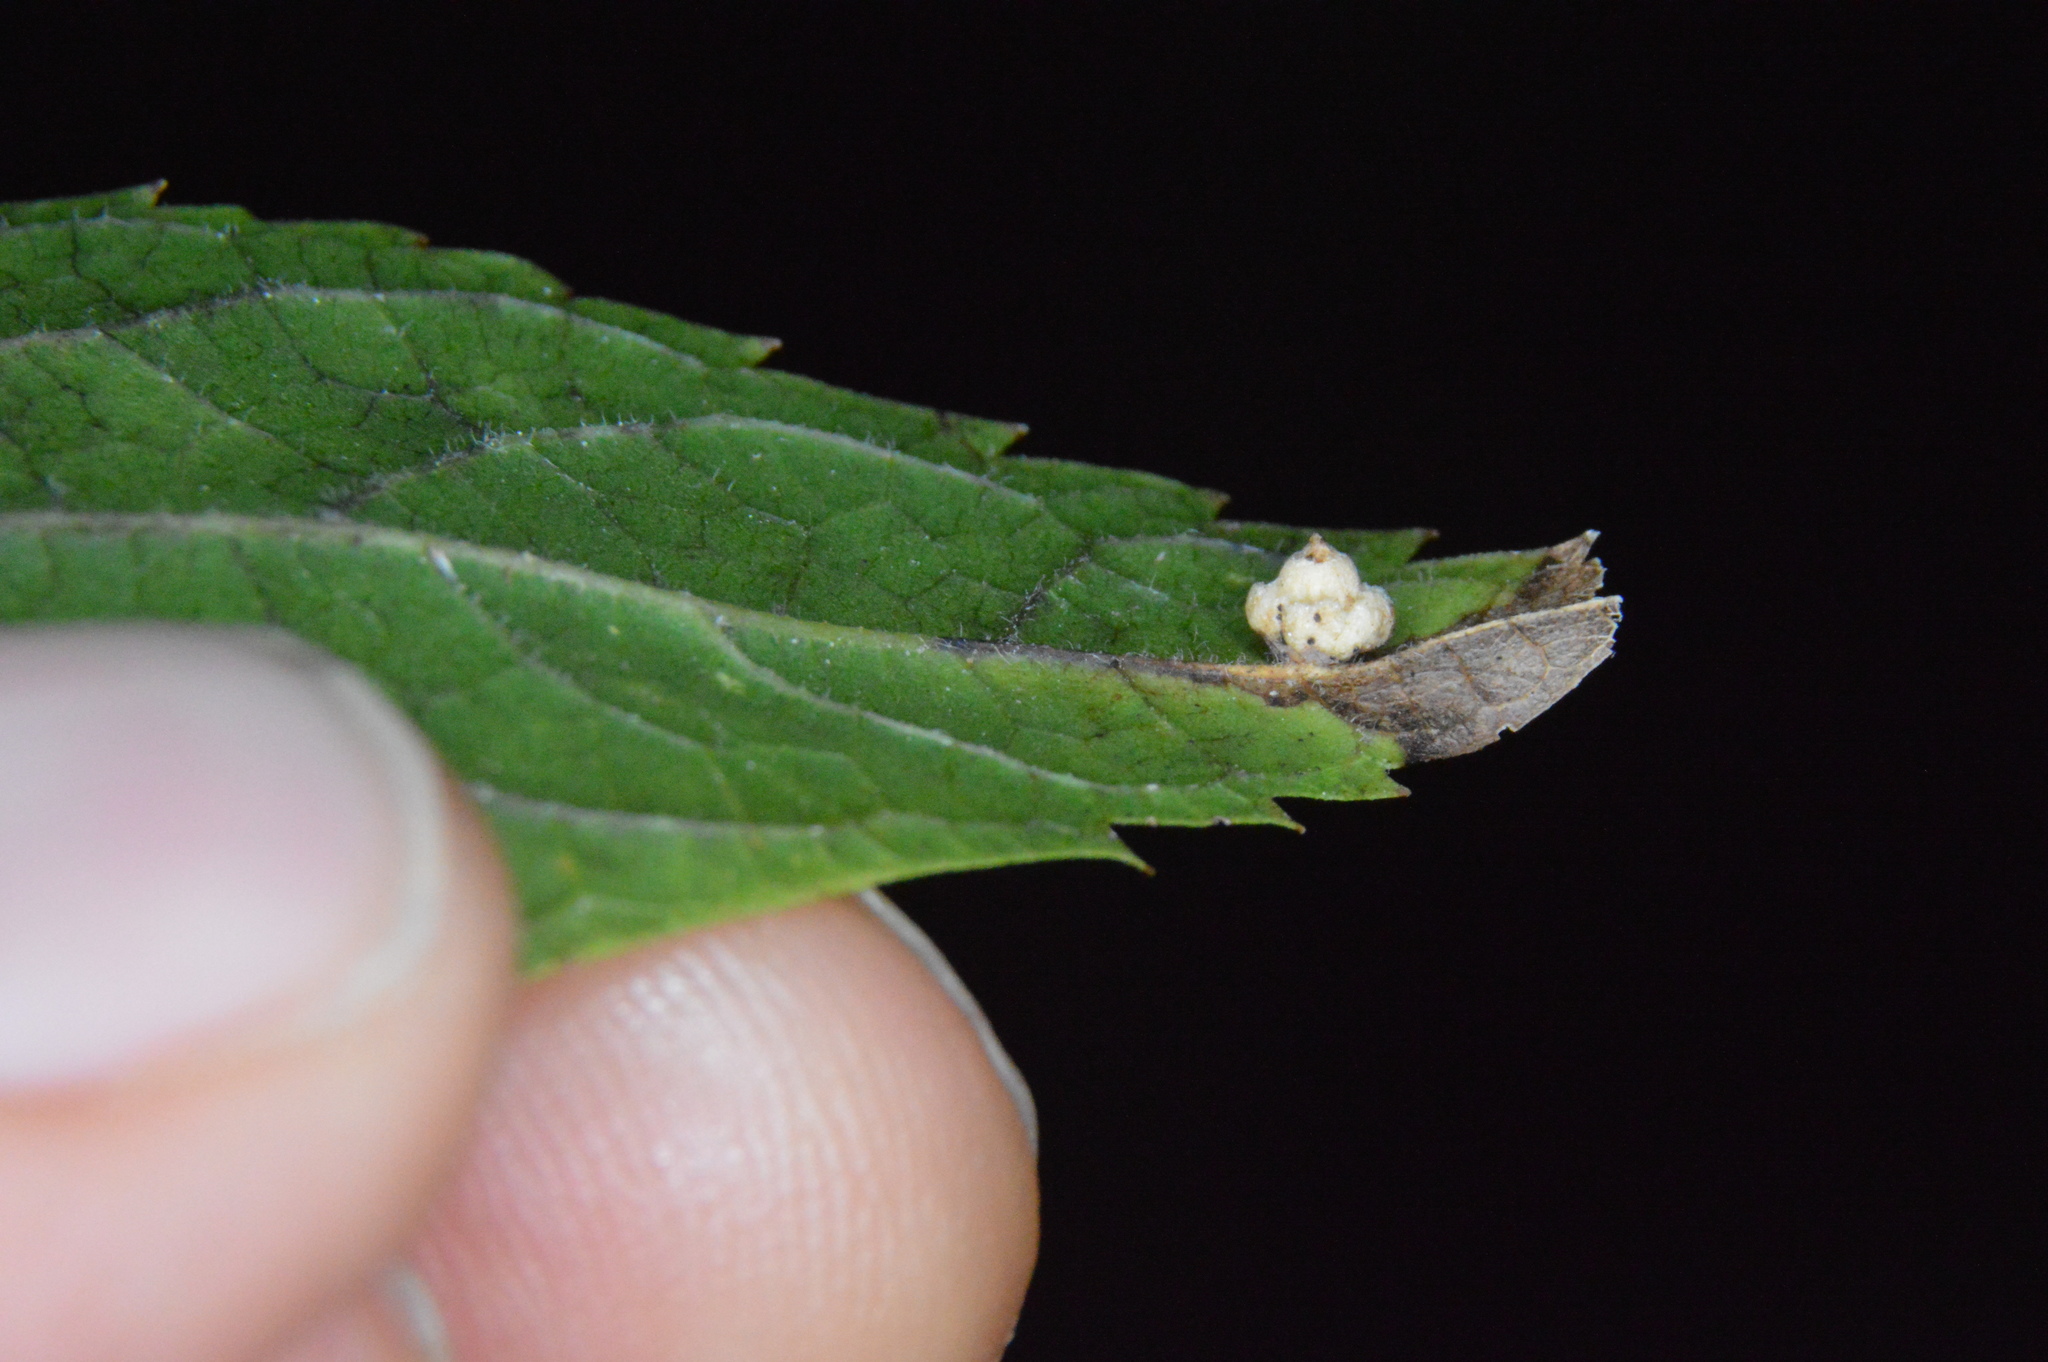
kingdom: Animalia
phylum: Arthropoda
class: Insecta
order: Diptera
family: Cecidomyiidae
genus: Celticecis
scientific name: Celticecis globosa
